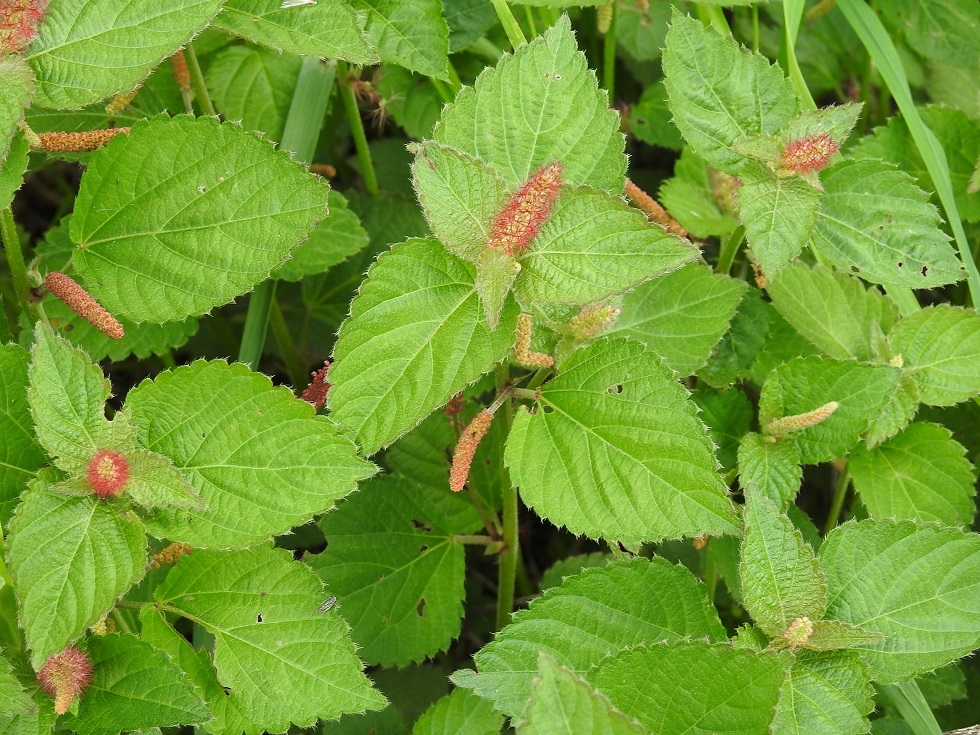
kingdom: Plantae
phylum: Tracheophyta
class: Magnoliopsida
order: Malpighiales
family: Euphorbiaceae
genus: Acalypha
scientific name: Acalypha phleoides
